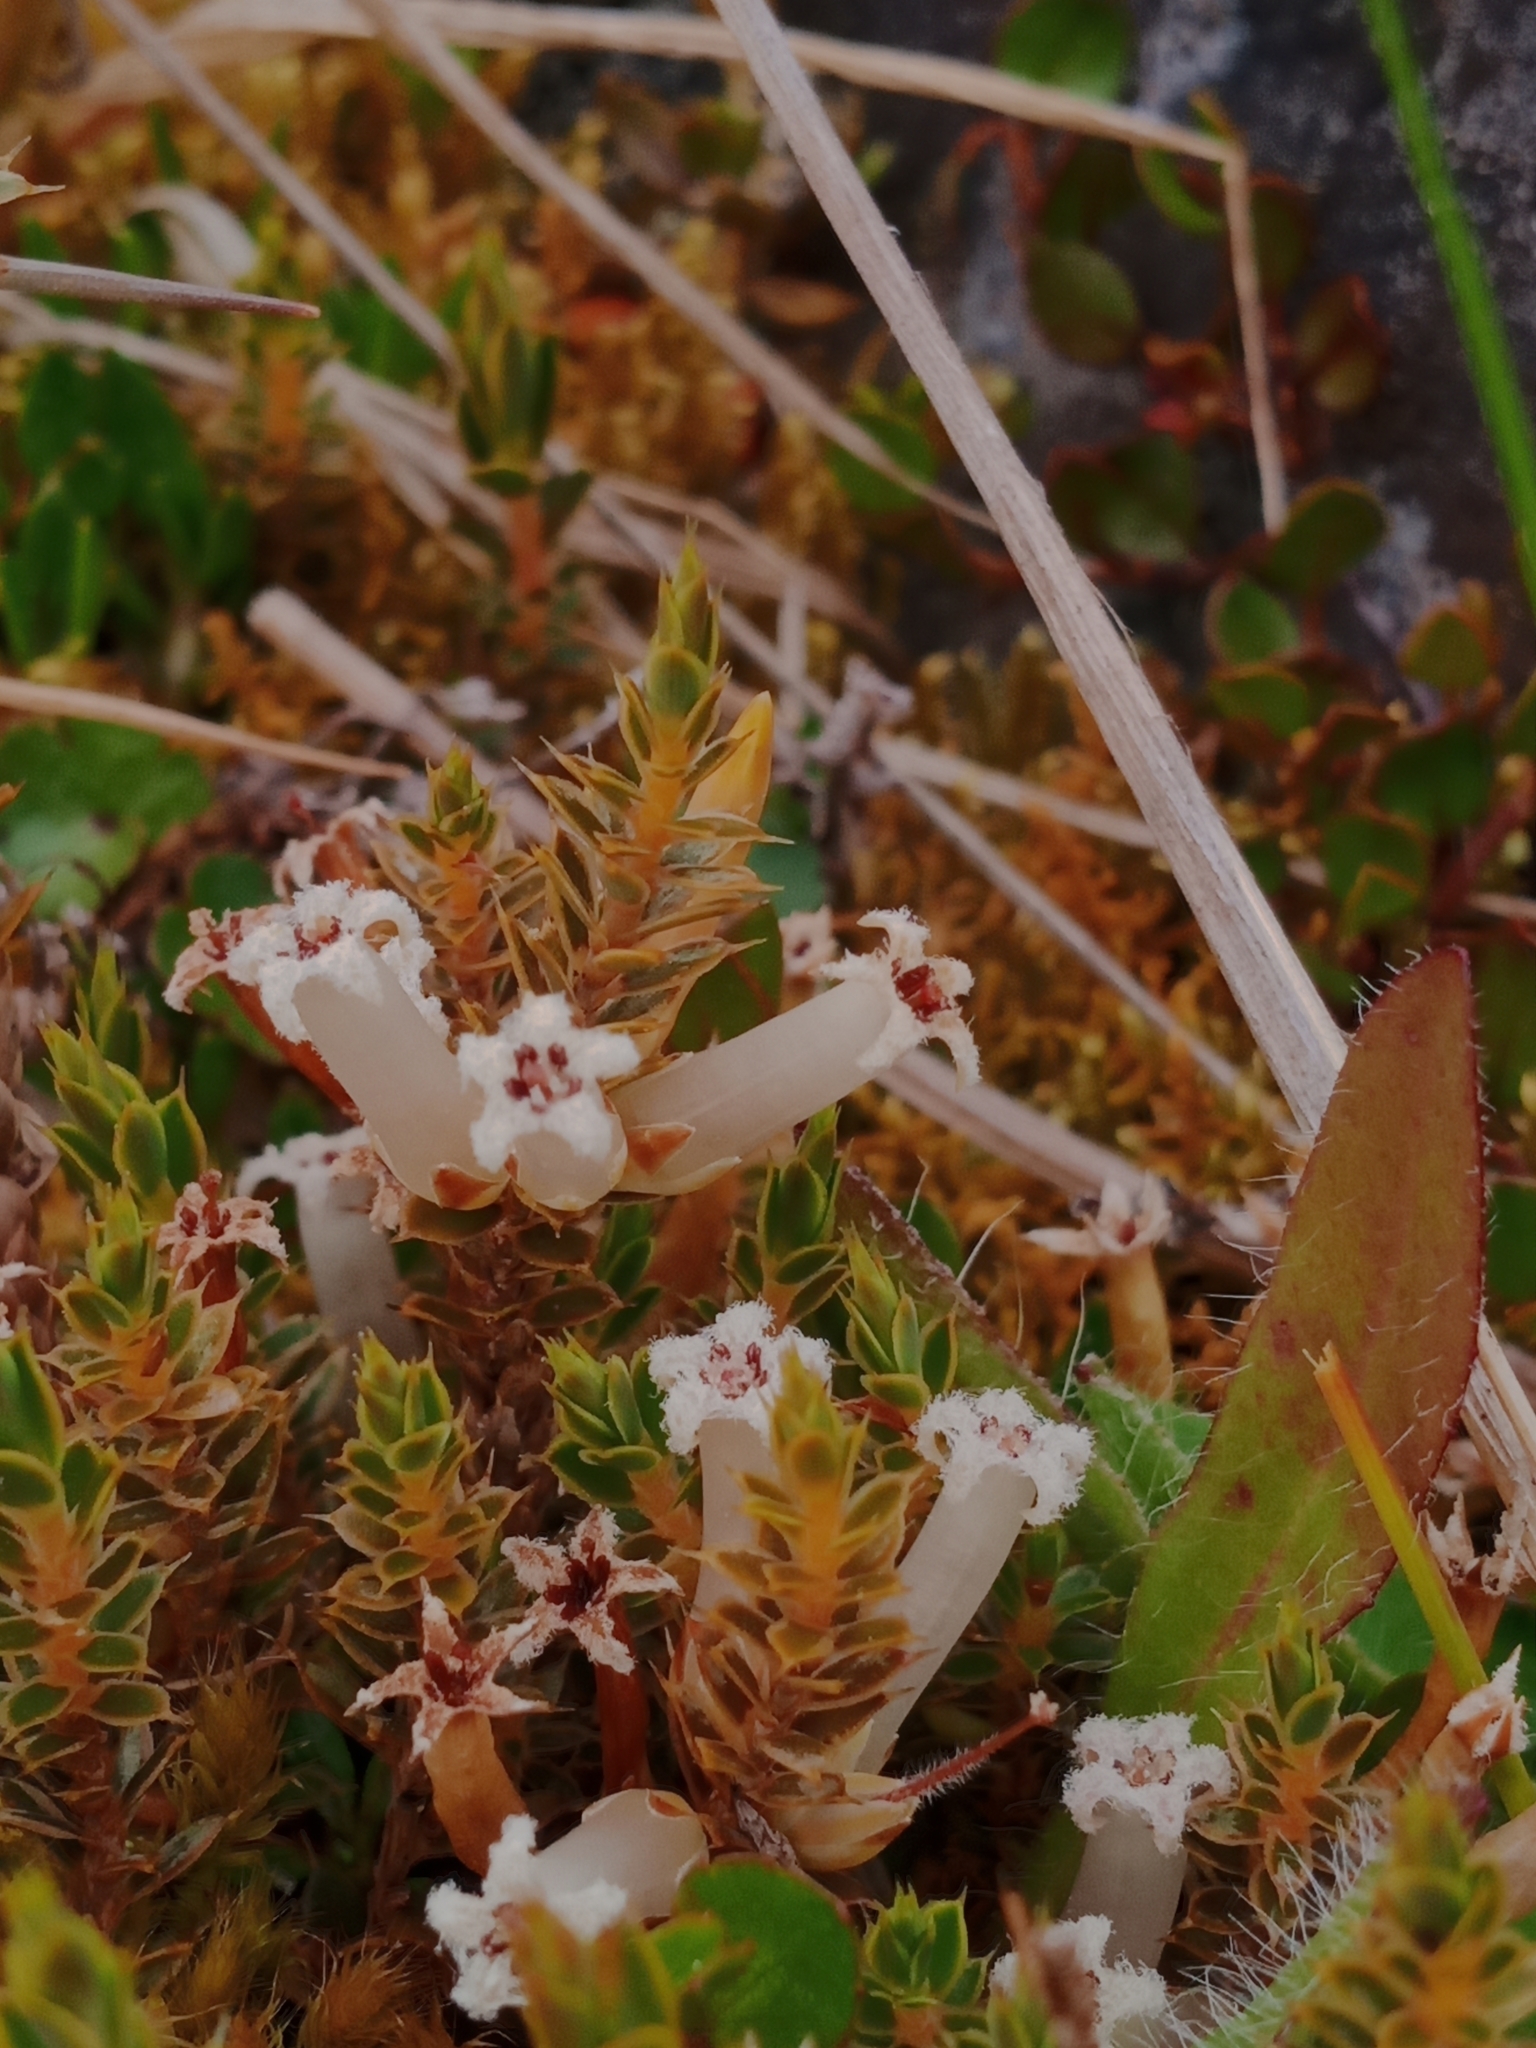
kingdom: Plantae
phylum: Tracheophyta
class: Magnoliopsida
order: Ericales
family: Ericaceae
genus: Styphelia
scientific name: Styphelia nesophila
